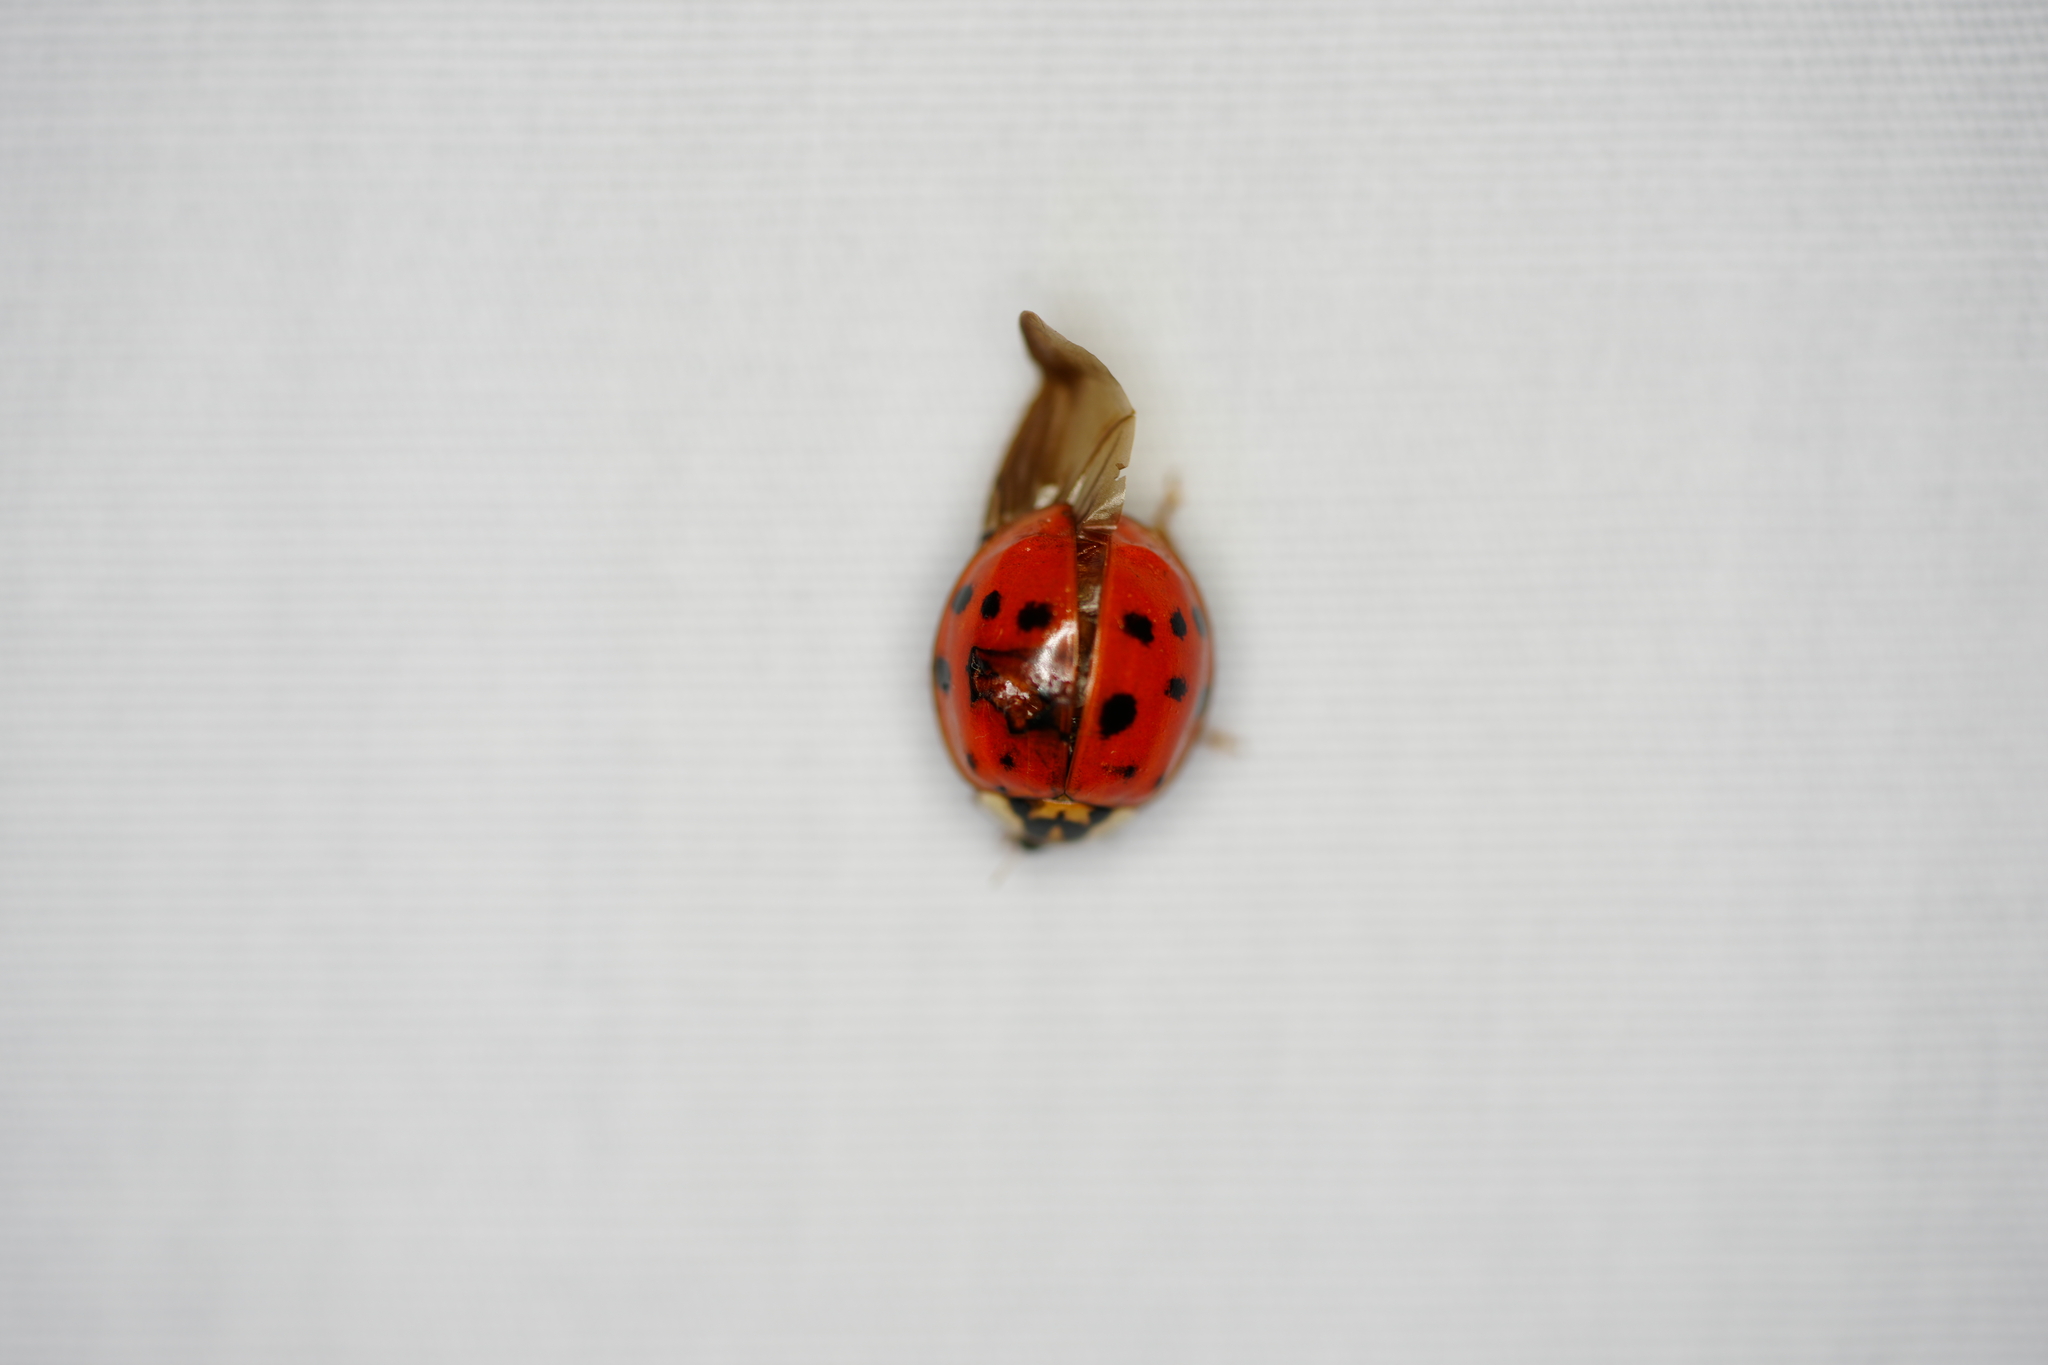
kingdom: Animalia
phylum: Arthropoda
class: Insecta
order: Coleoptera
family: Coccinellidae
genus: Harmonia
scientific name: Harmonia axyridis
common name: Harlequin ladybird
